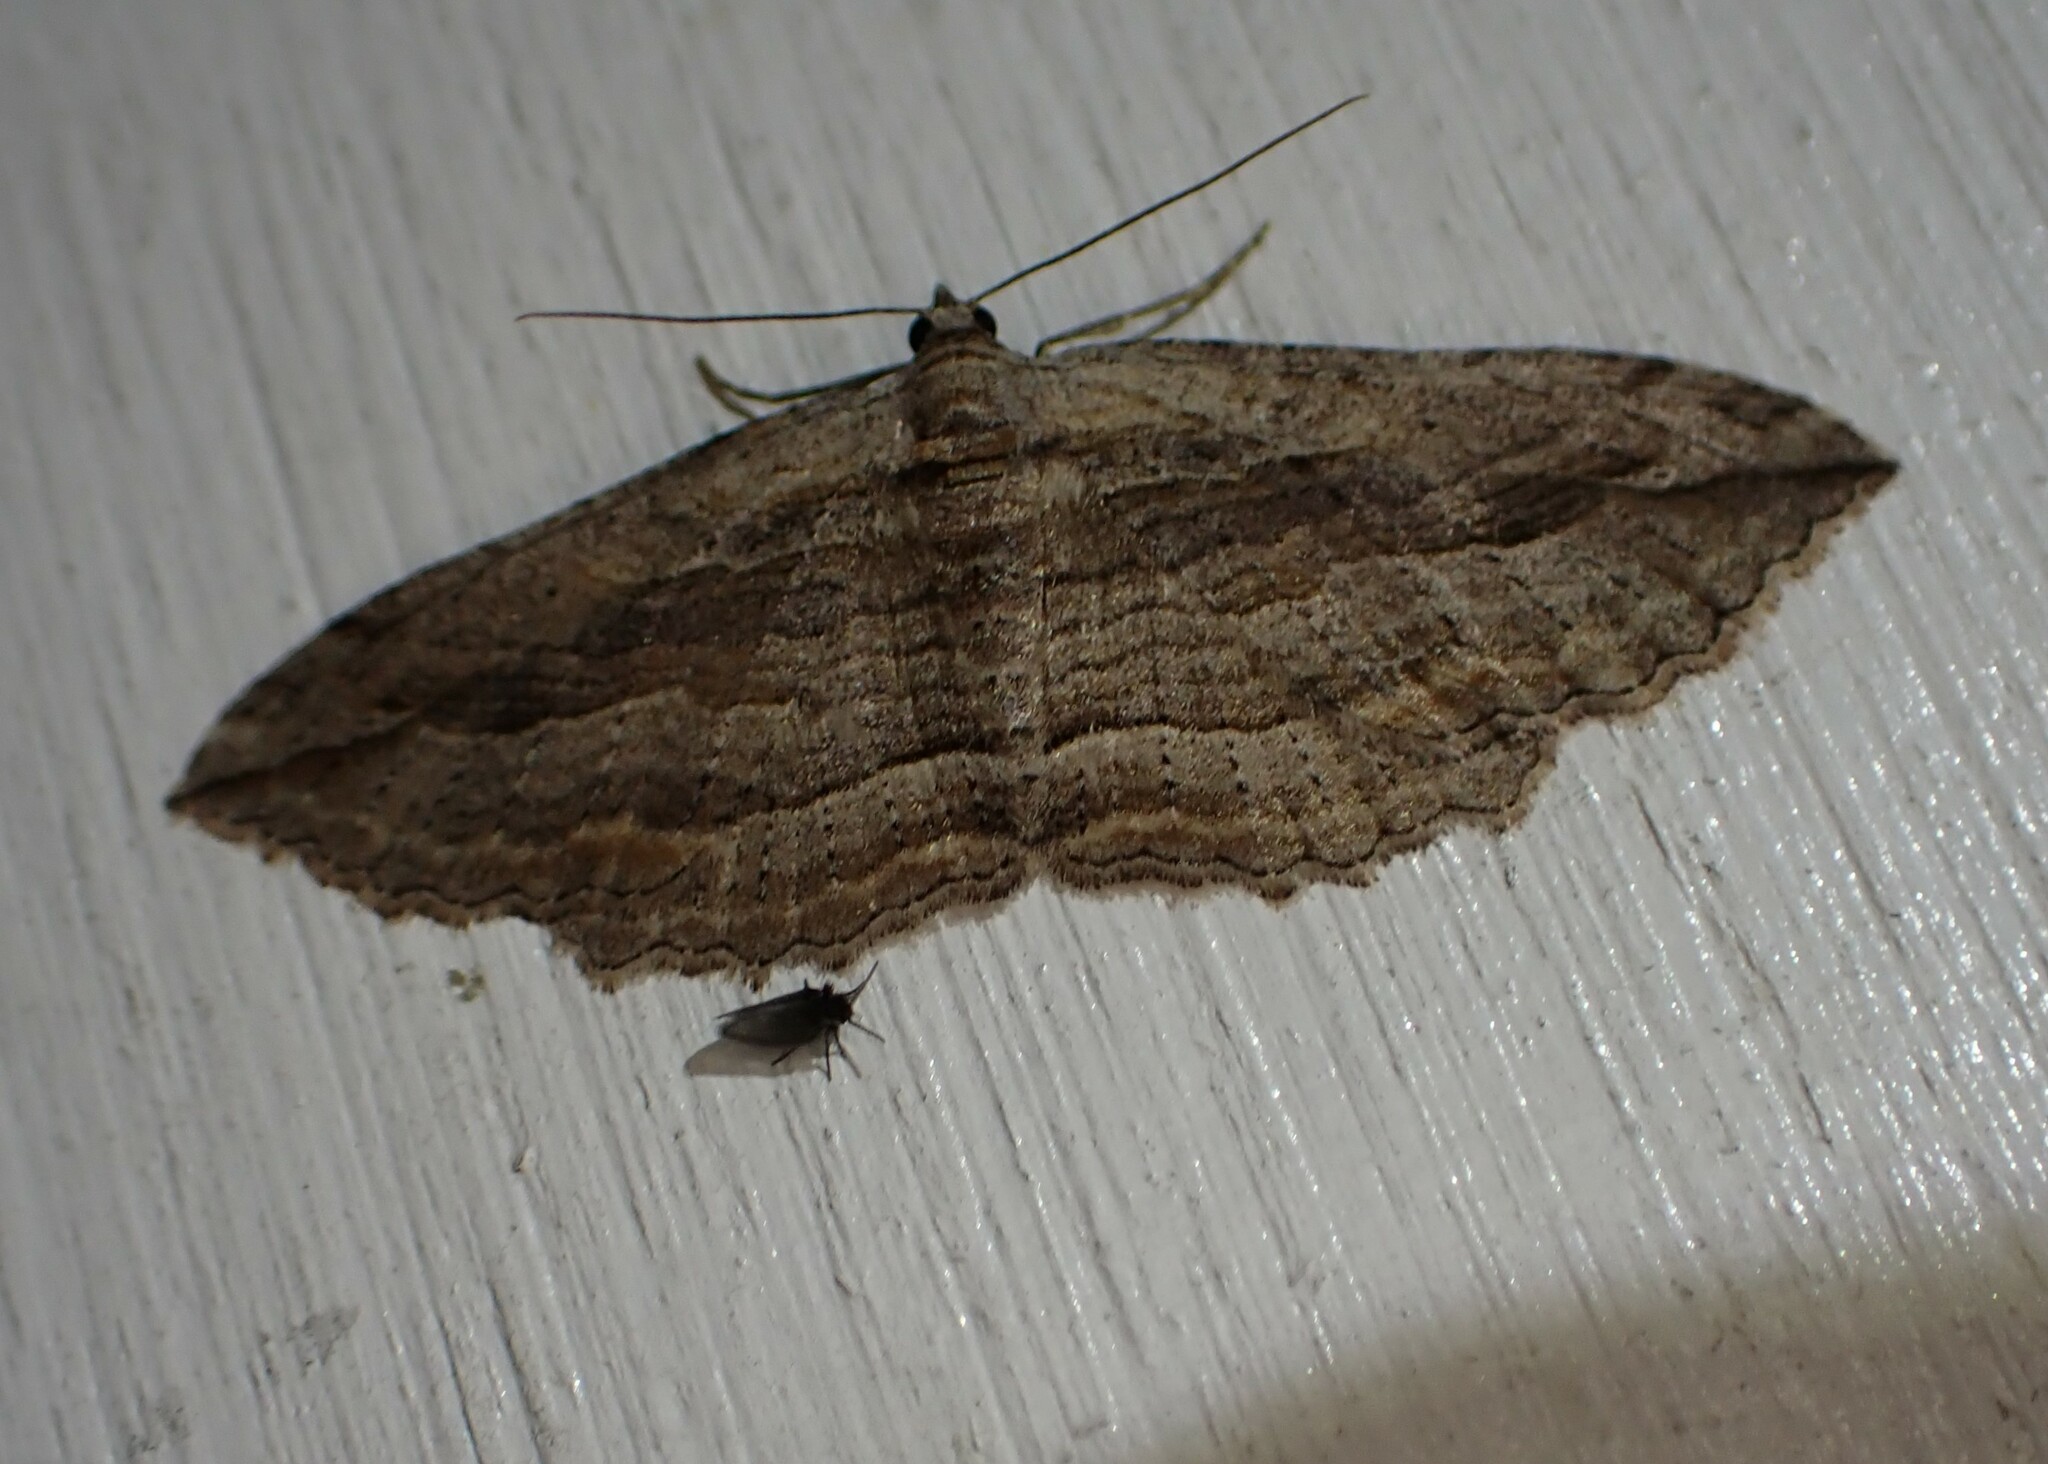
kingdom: Animalia
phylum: Arthropoda
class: Insecta
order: Lepidoptera
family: Geometridae
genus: Austrocidaria
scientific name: Austrocidaria gobiata
